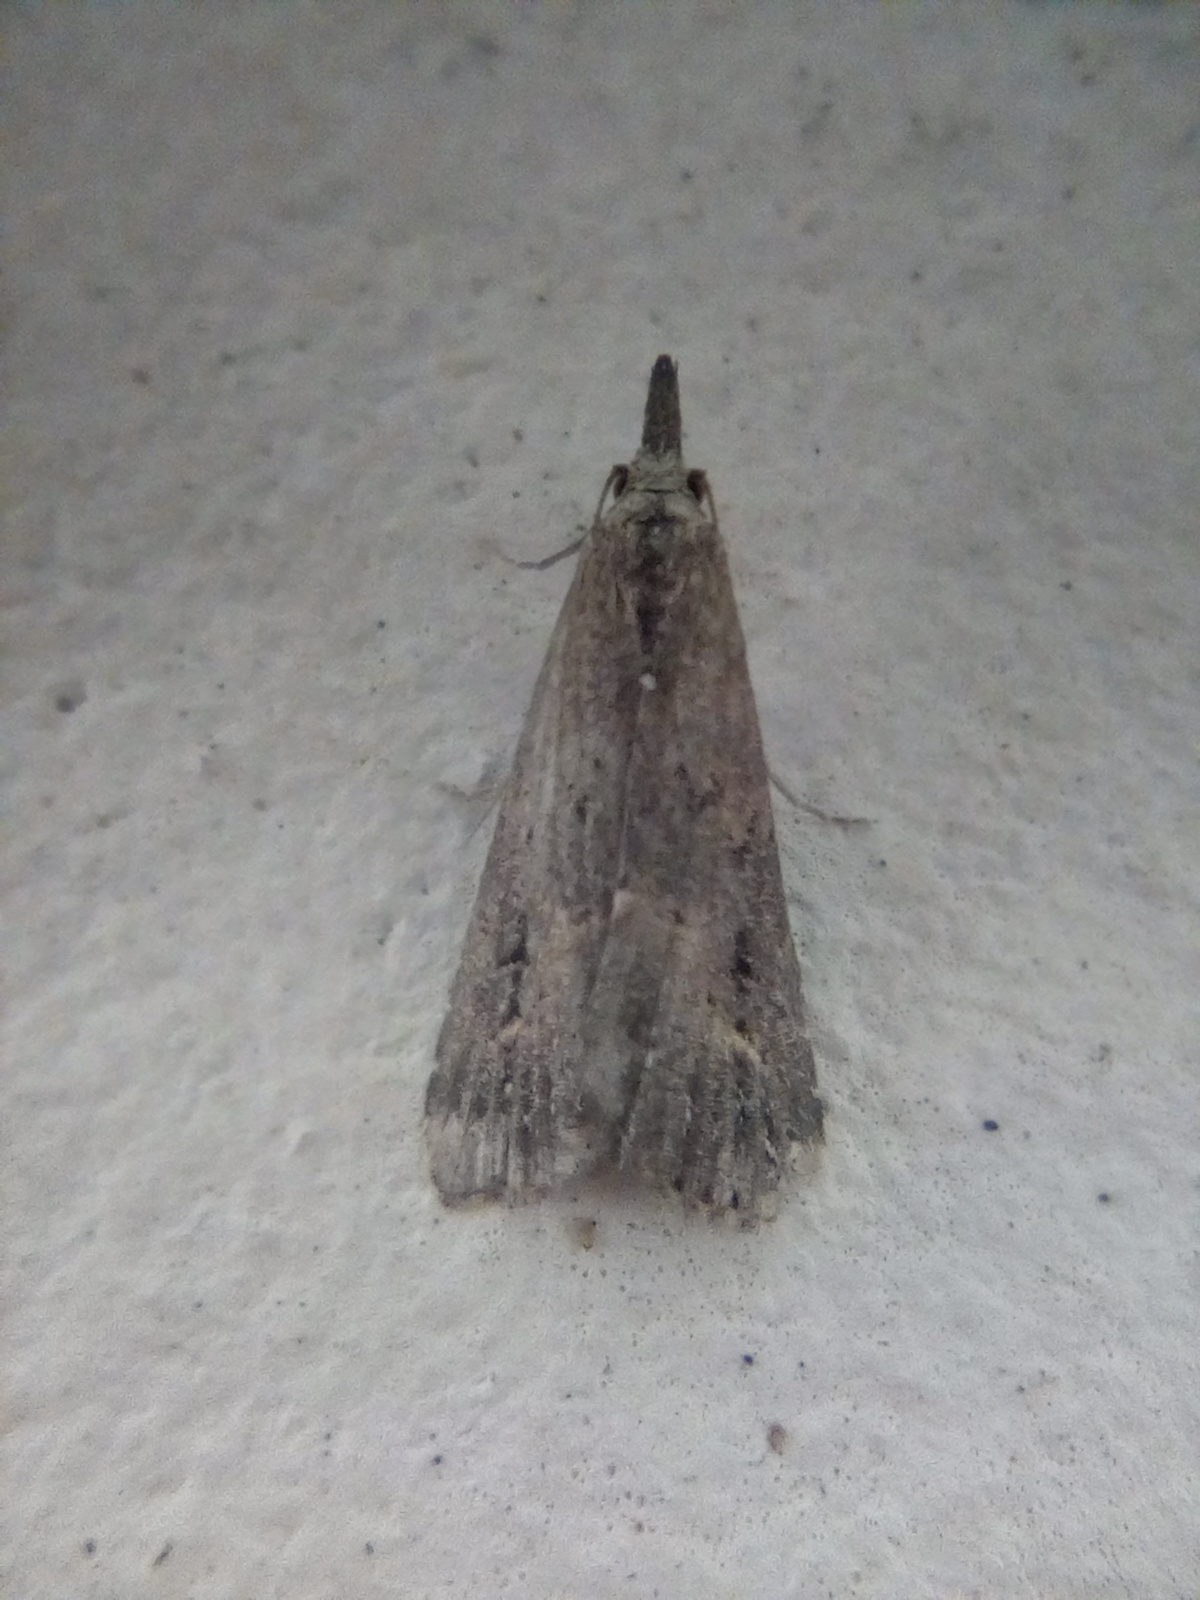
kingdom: Animalia
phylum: Arthropoda
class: Insecta
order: Lepidoptera
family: Erebidae
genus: Schrankia
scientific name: Schrankia costaestrigalis
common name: Pinion-streaked snout
